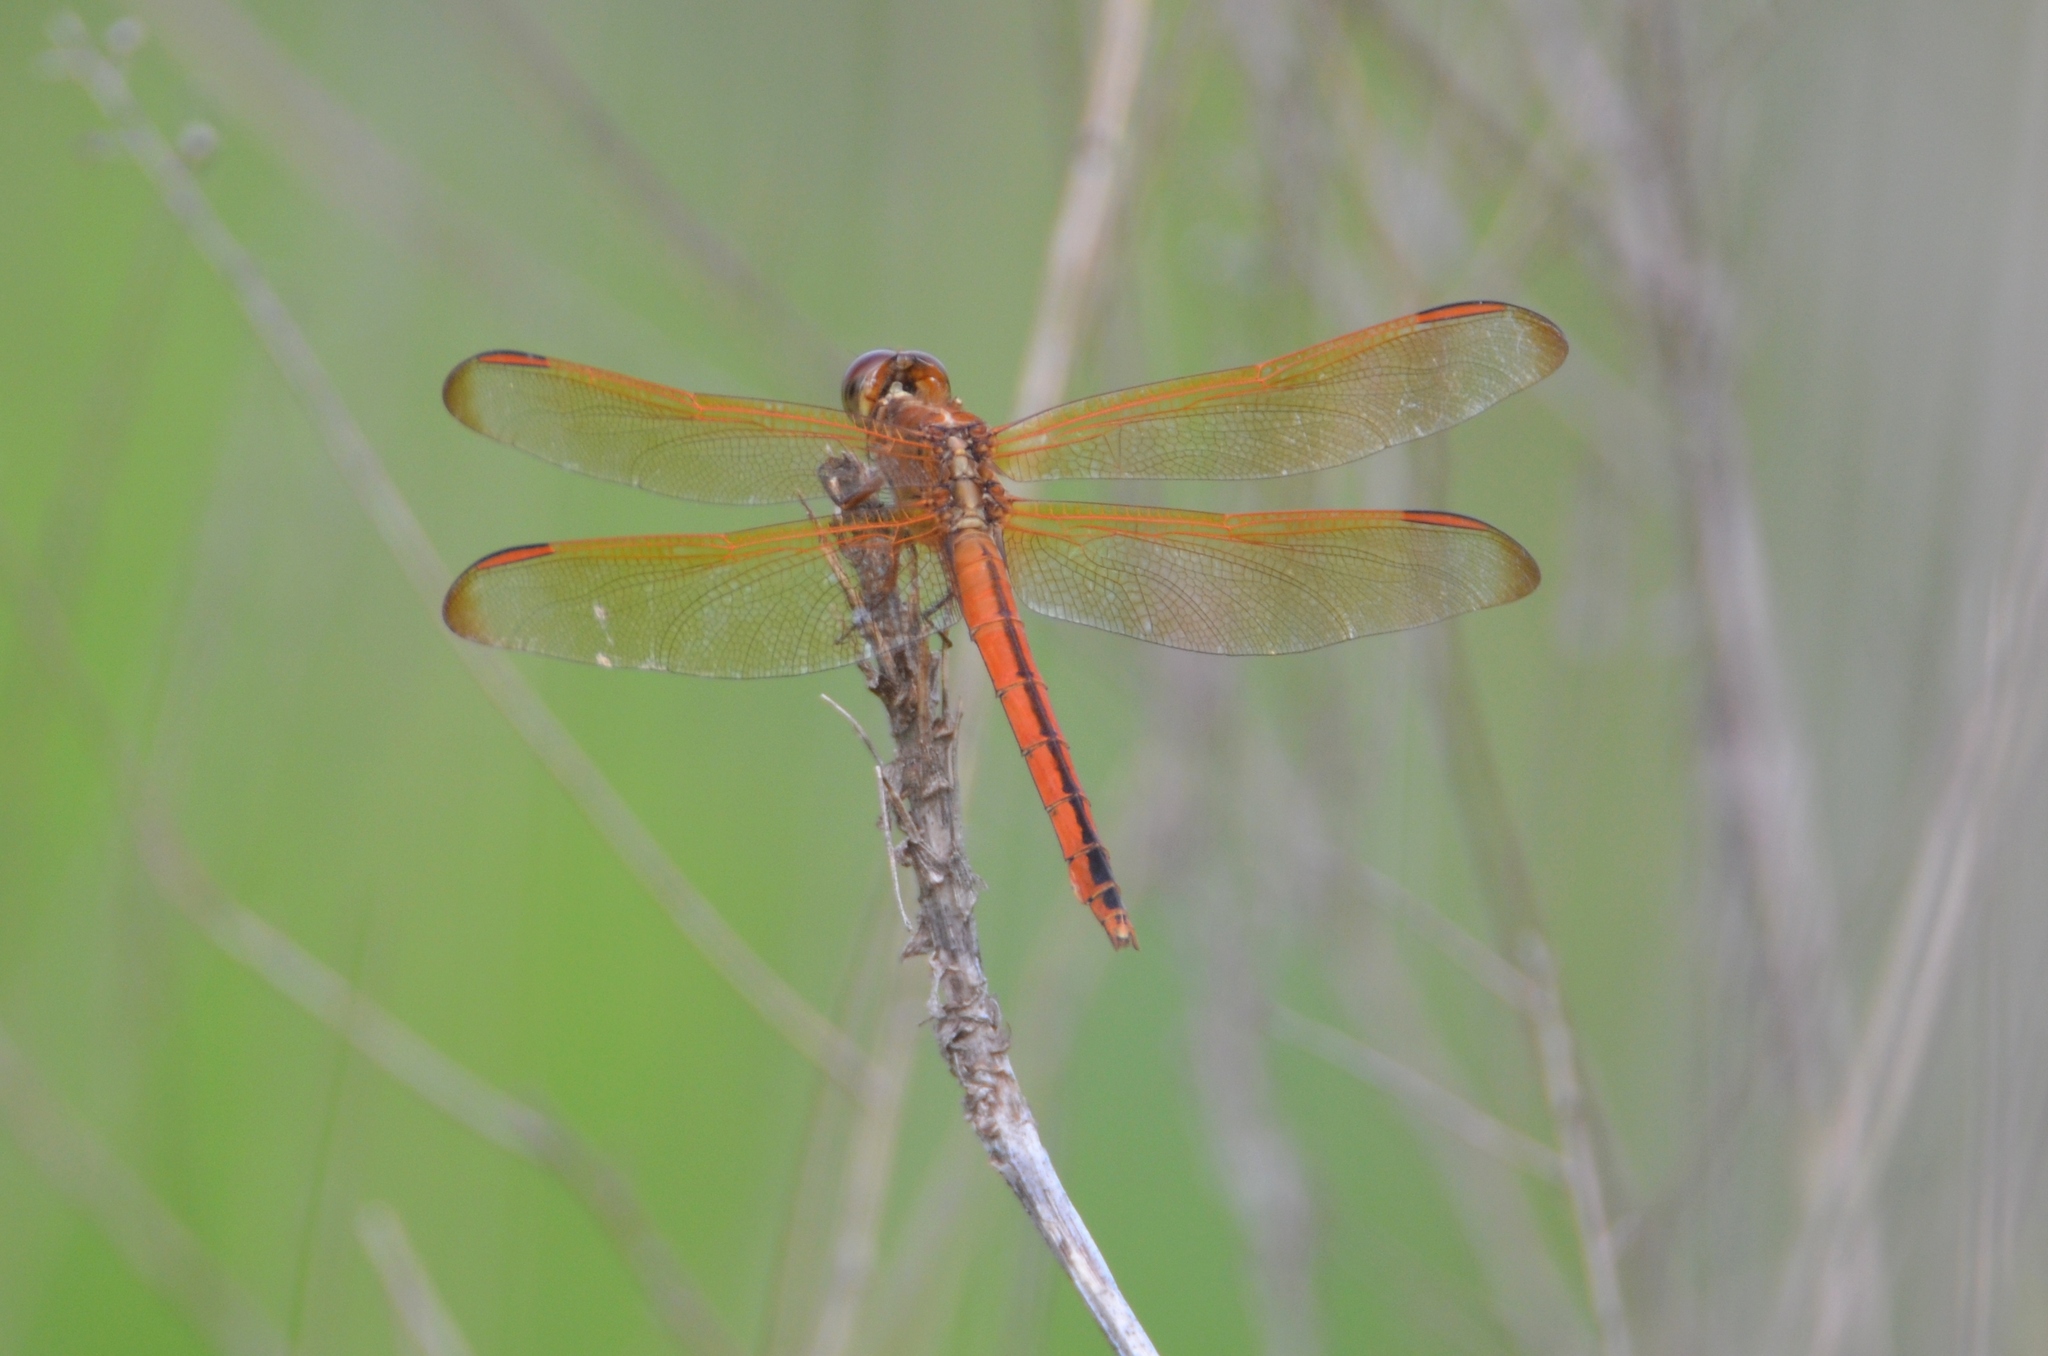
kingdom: Animalia
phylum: Arthropoda
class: Insecta
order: Odonata
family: Libellulidae
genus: Libellula
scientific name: Libellula needhami
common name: Needham's skimmer
